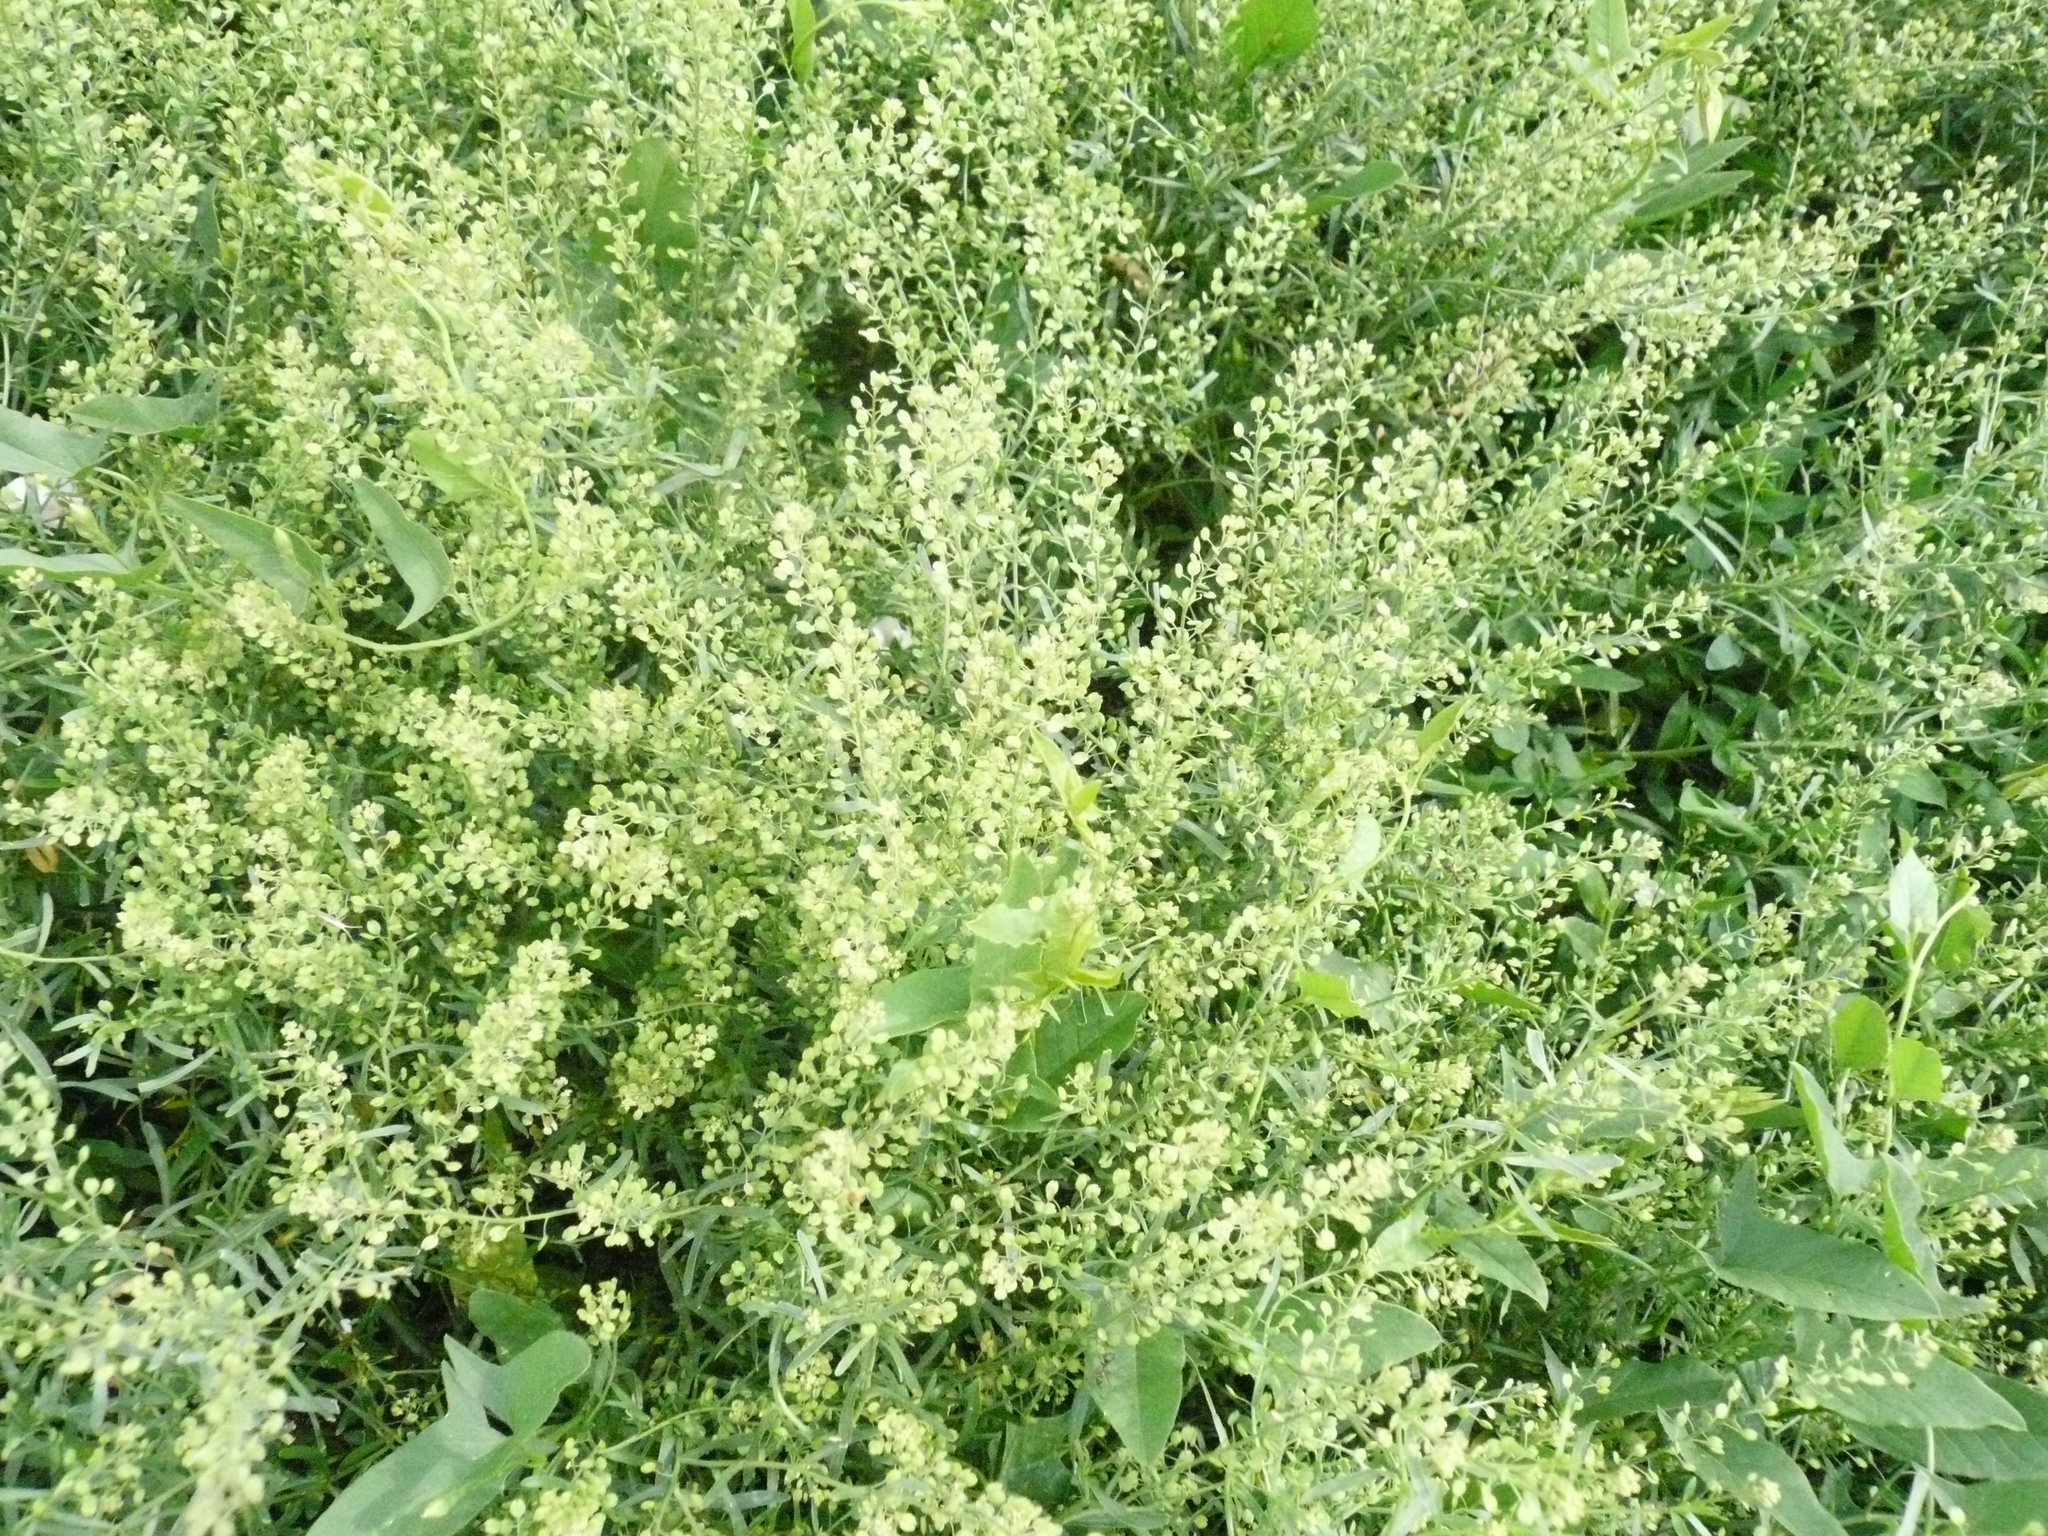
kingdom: Plantae
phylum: Tracheophyta
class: Magnoliopsida
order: Brassicales
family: Brassicaceae
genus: Lepidium
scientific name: Lepidium ruderale
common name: Narrow-leaved pepperwort
